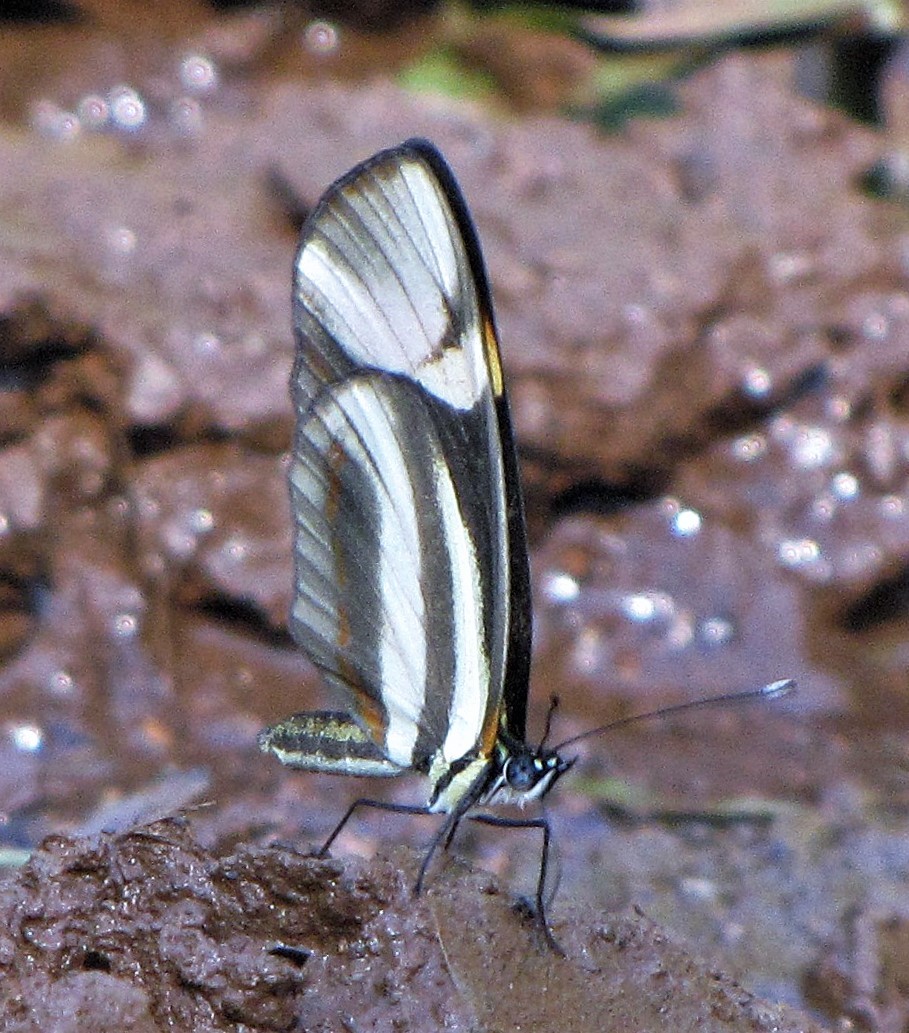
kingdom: Animalia
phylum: Arthropoda
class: Insecta
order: Lepidoptera
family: Nymphalidae
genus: Eresia
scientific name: Eresia lansdorfi
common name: Lansdorf's crescent
